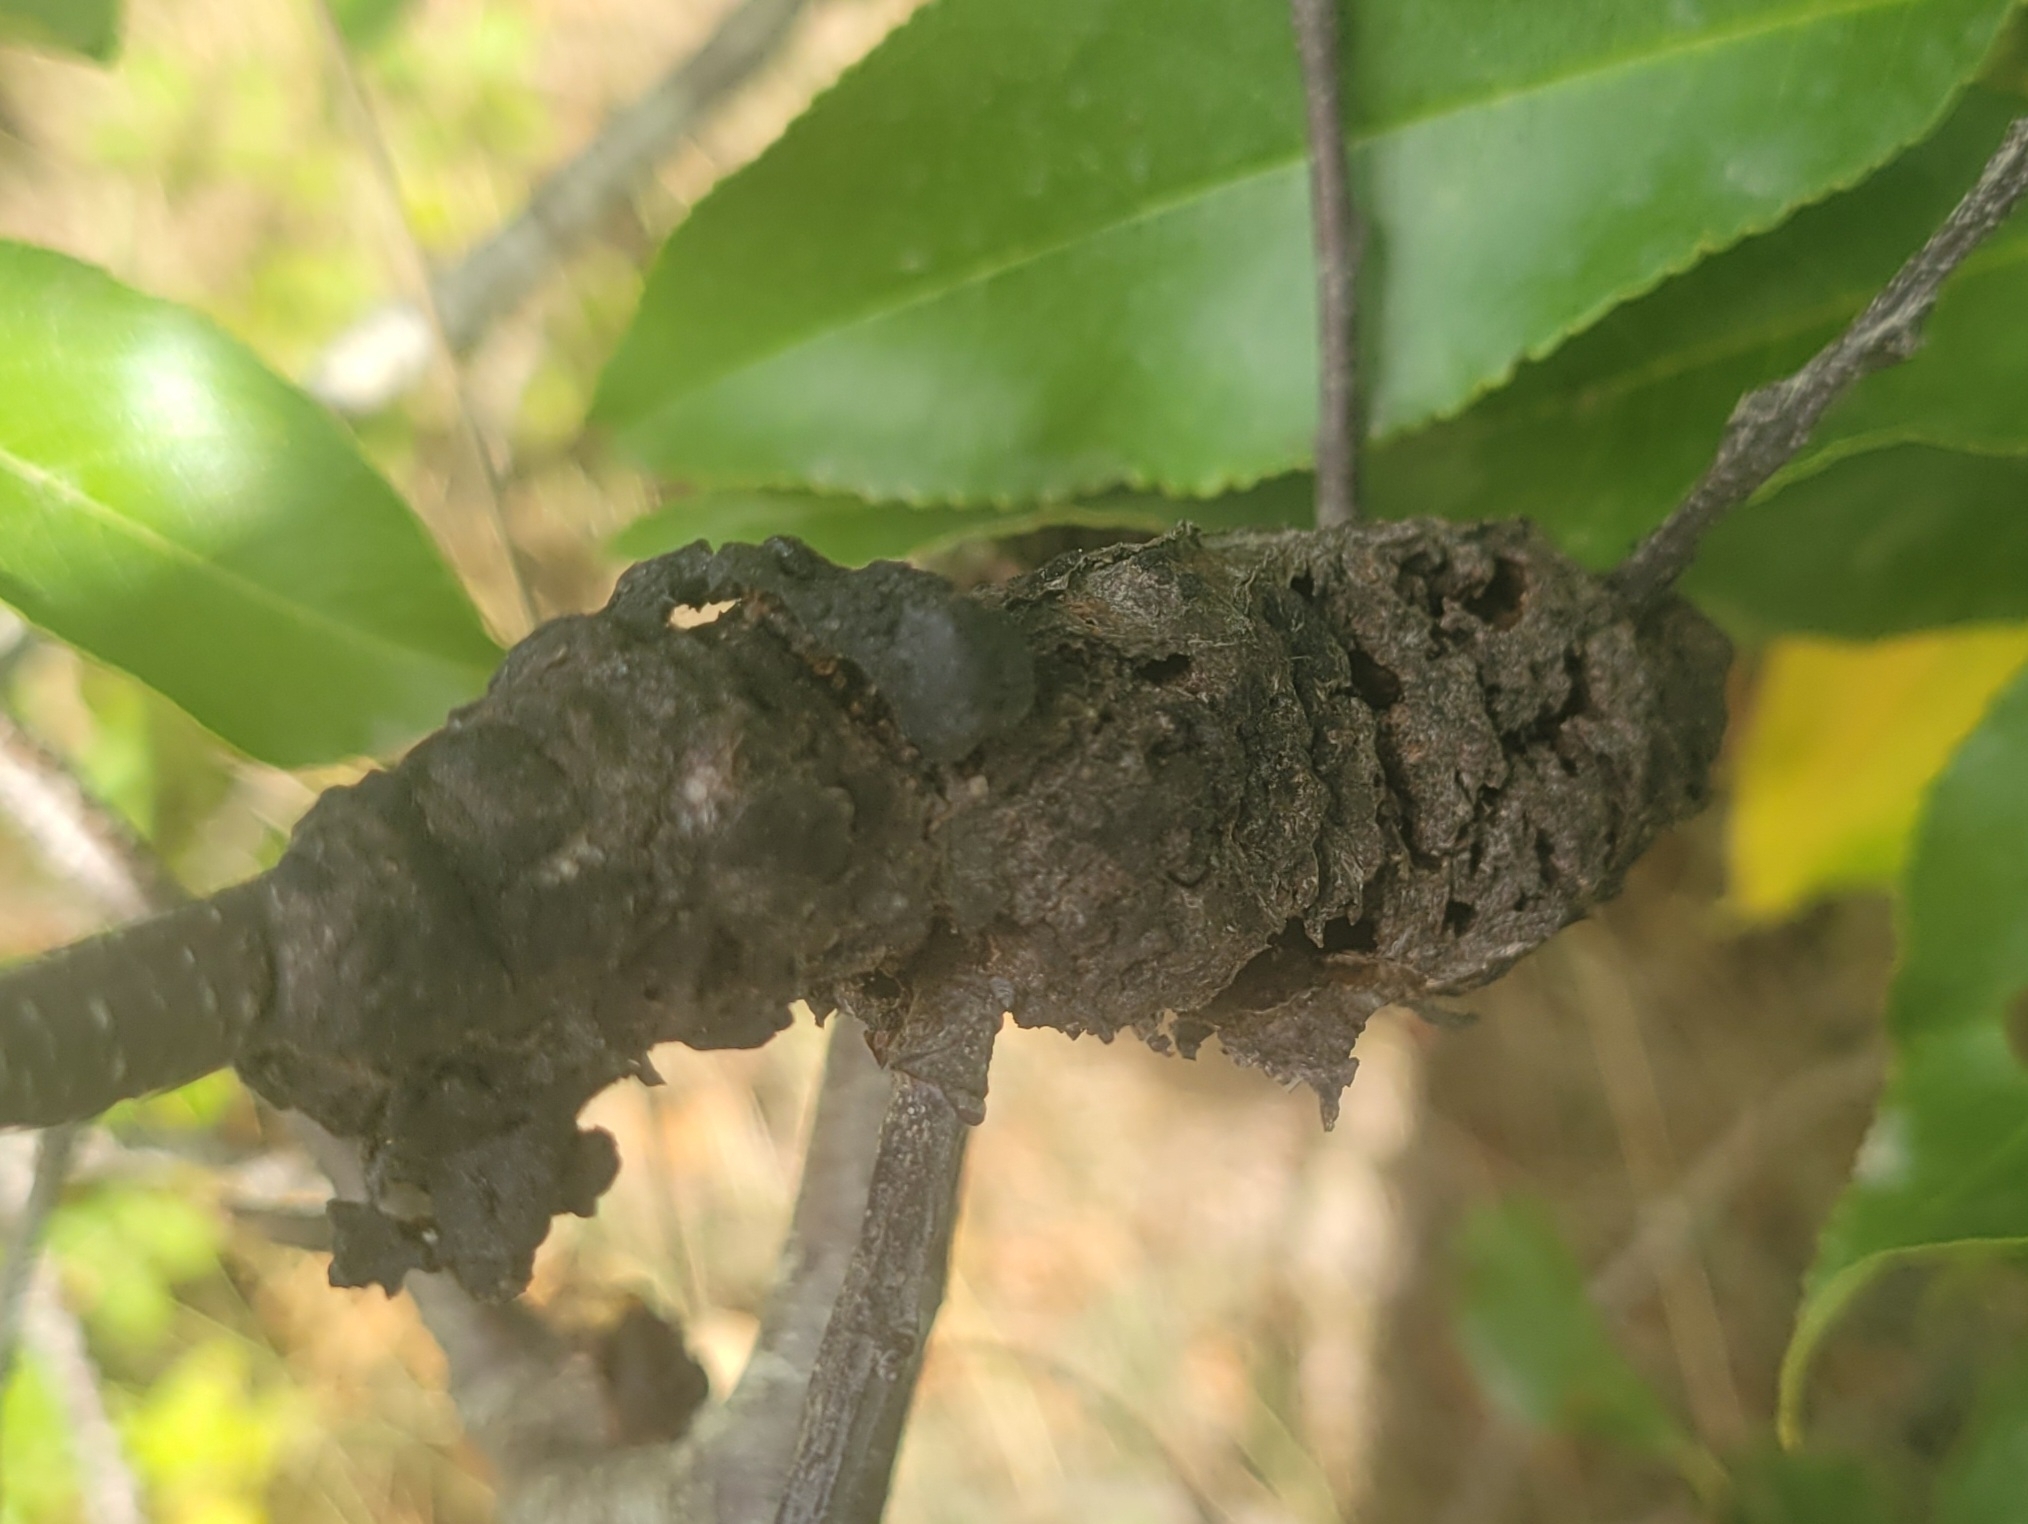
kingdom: Fungi
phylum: Ascomycota
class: Dothideomycetes
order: Venturiales
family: Venturiaceae
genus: Apiosporina
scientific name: Apiosporina morbosa
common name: Black knot
